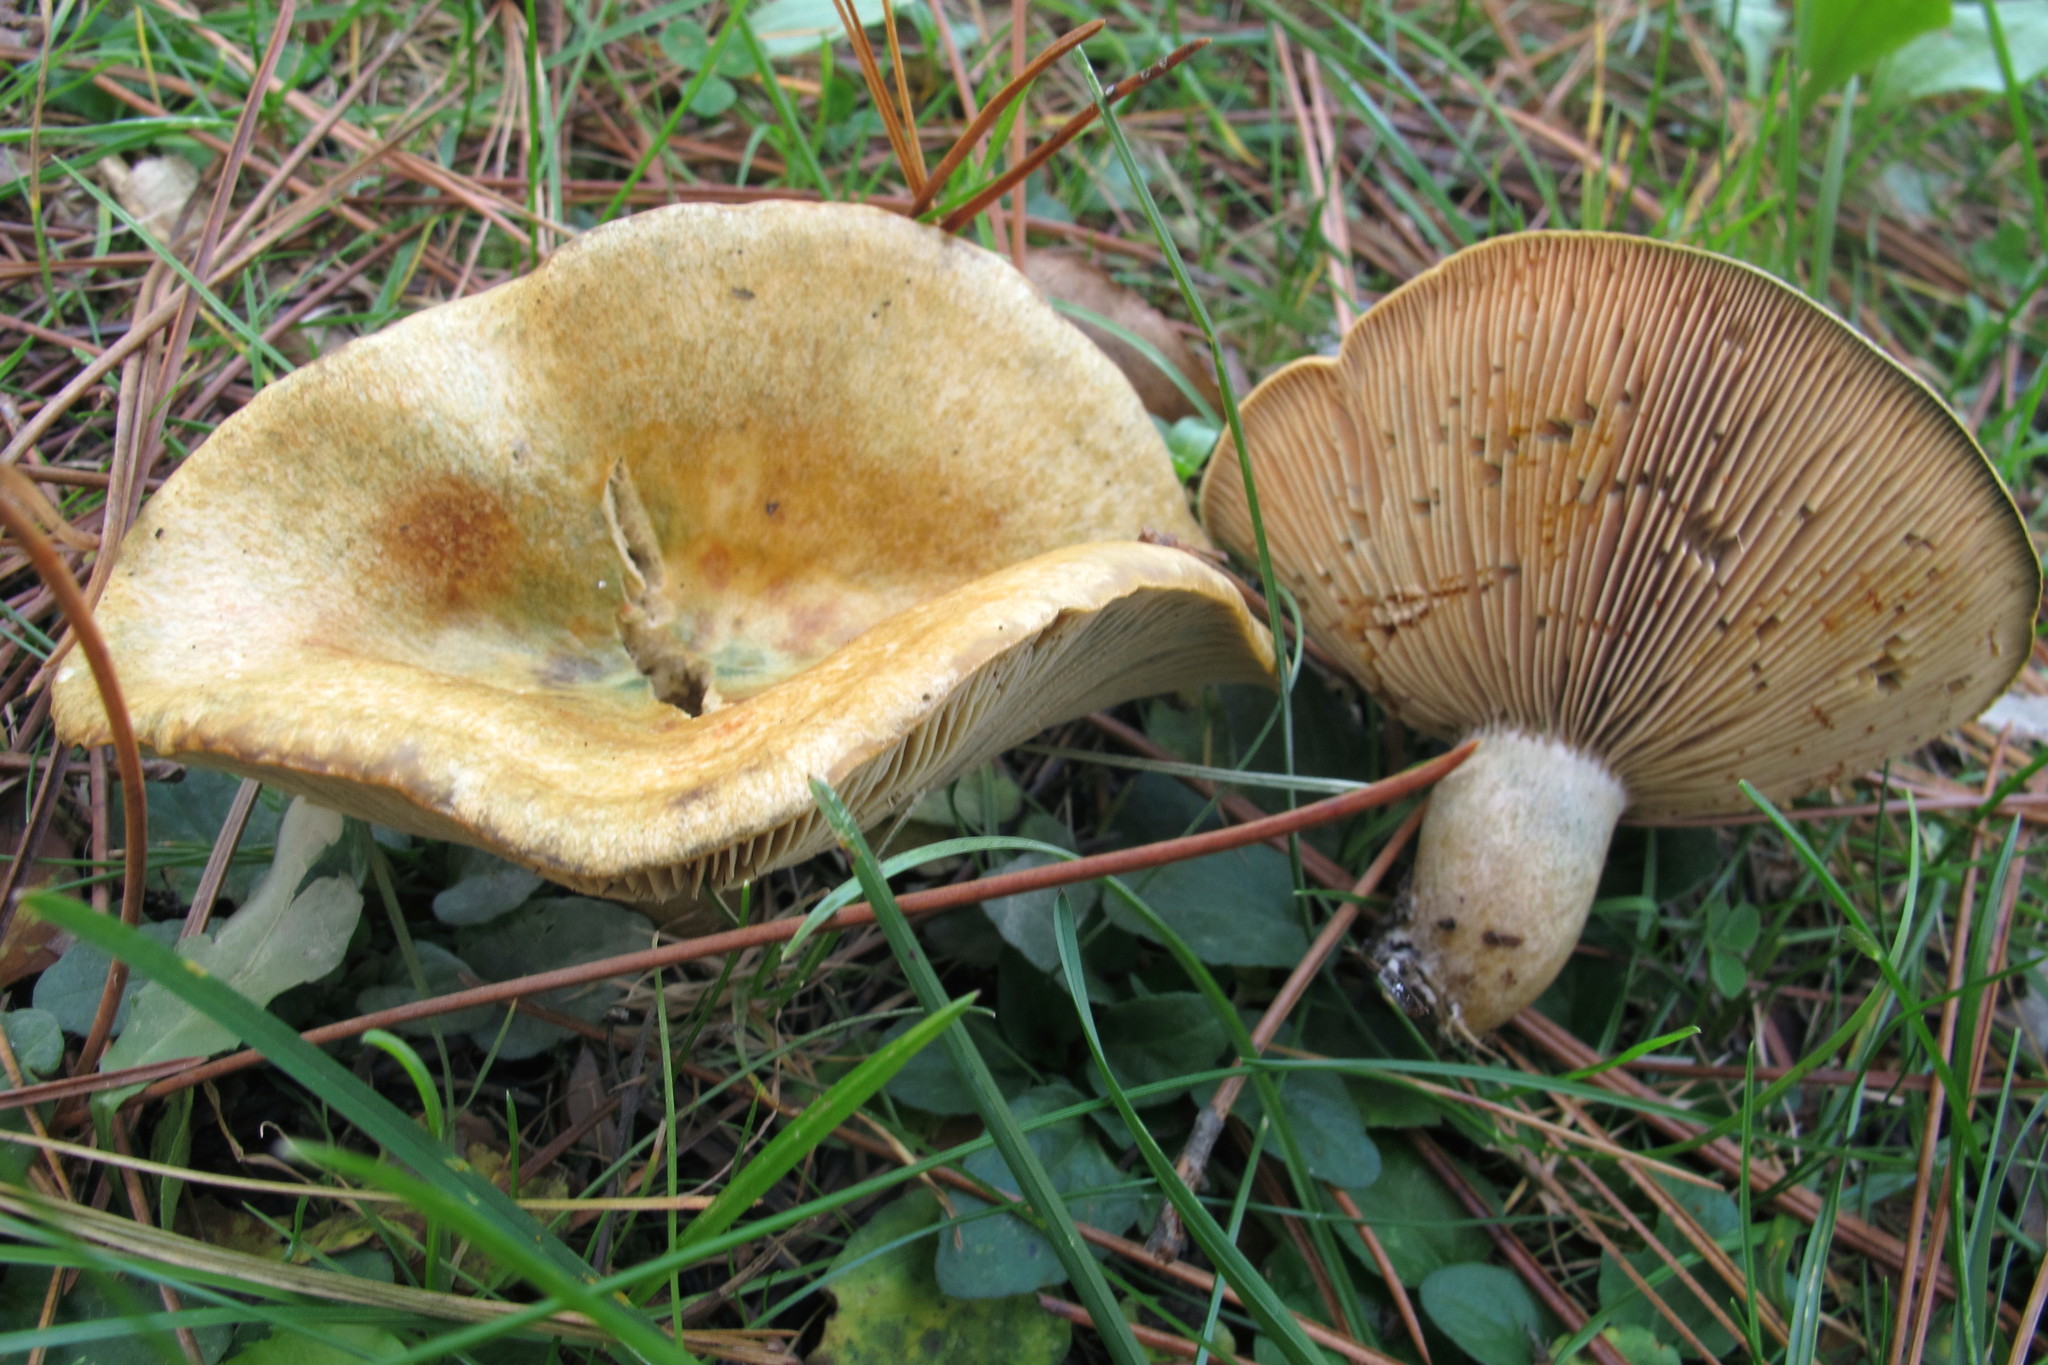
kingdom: Fungi
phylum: Basidiomycota
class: Agaricomycetes
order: Russulales
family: Russulaceae
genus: Lactarius
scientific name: Lactarius chelidonium
